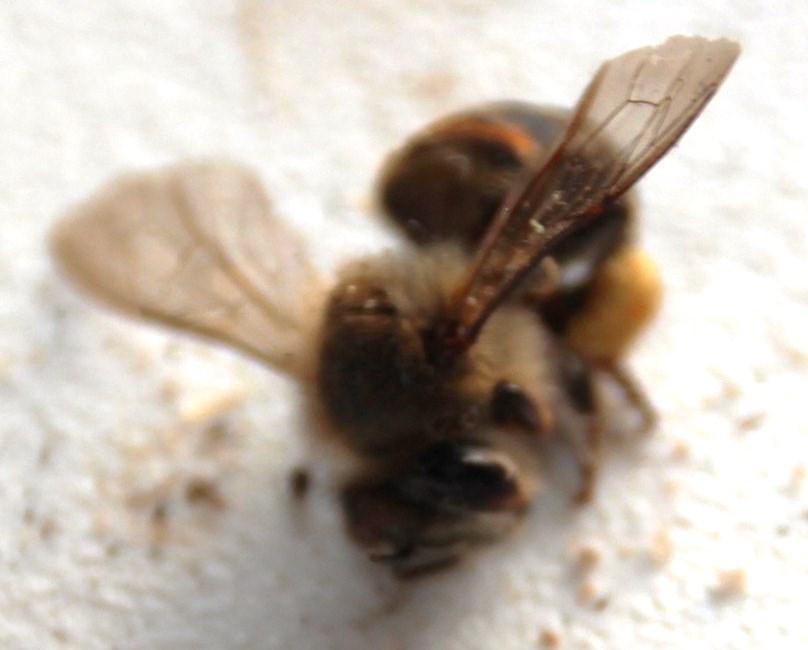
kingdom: Animalia
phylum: Arthropoda
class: Insecta
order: Hymenoptera
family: Apidae
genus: Apis
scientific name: Apis mellifera
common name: Honey bee
